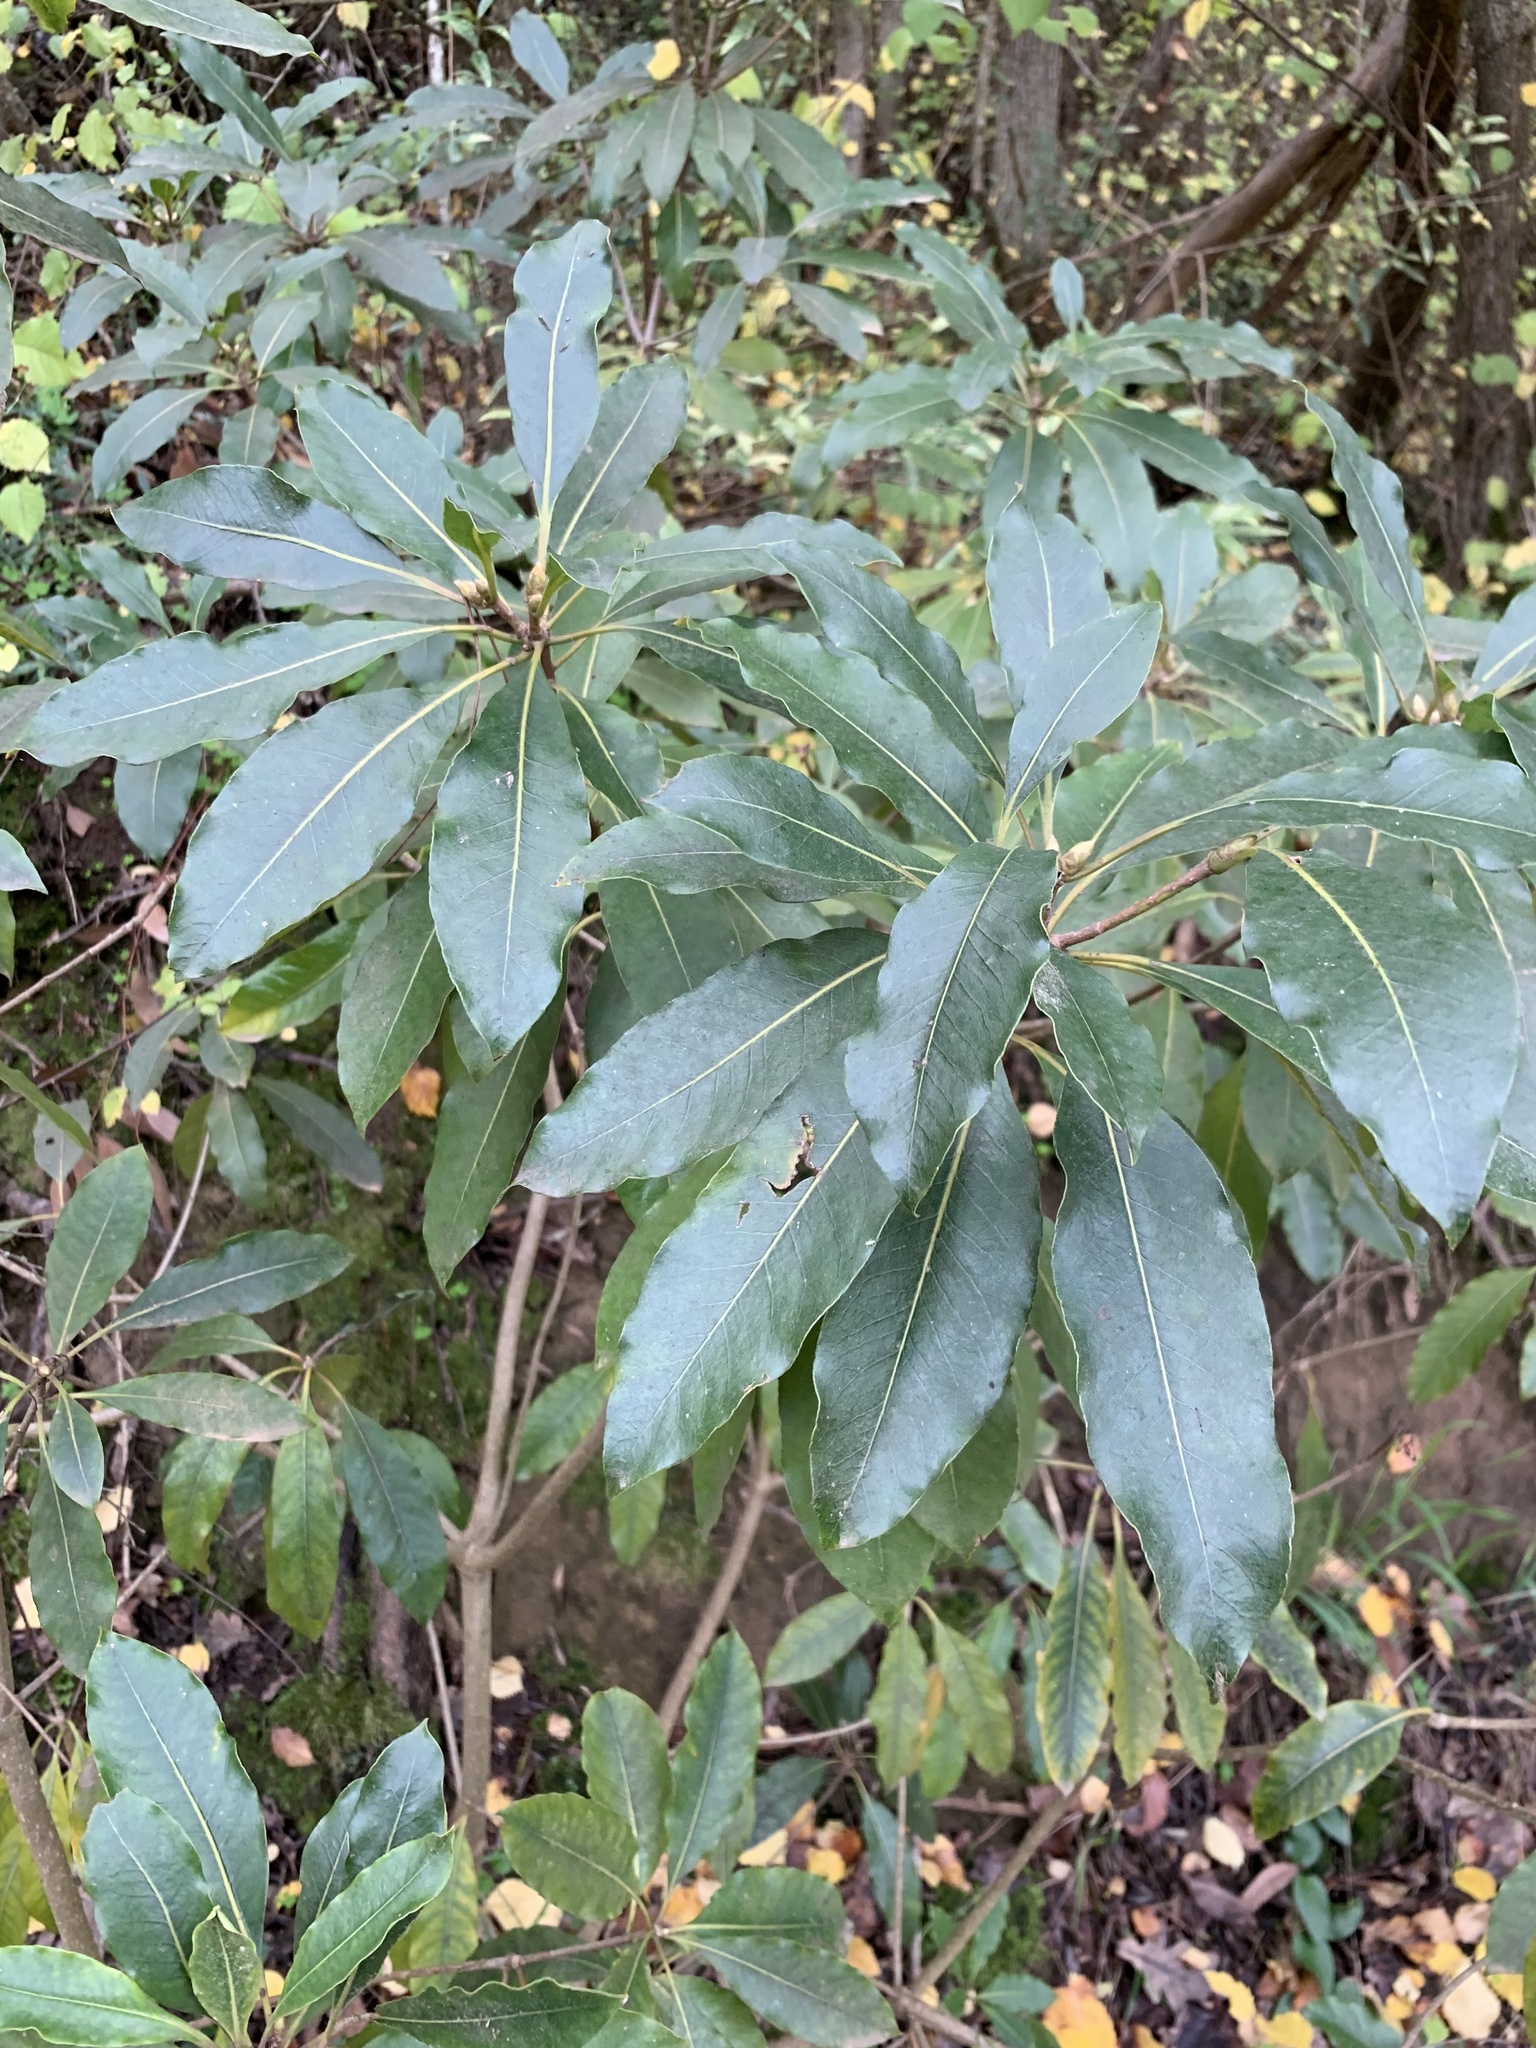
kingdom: Plantae
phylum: Tracheophyta
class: Magnoliopsida
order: Apiales
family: Pittosporaceae
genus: Pittosporum
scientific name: Pittosporum undulatum
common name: Australian cheesewood
